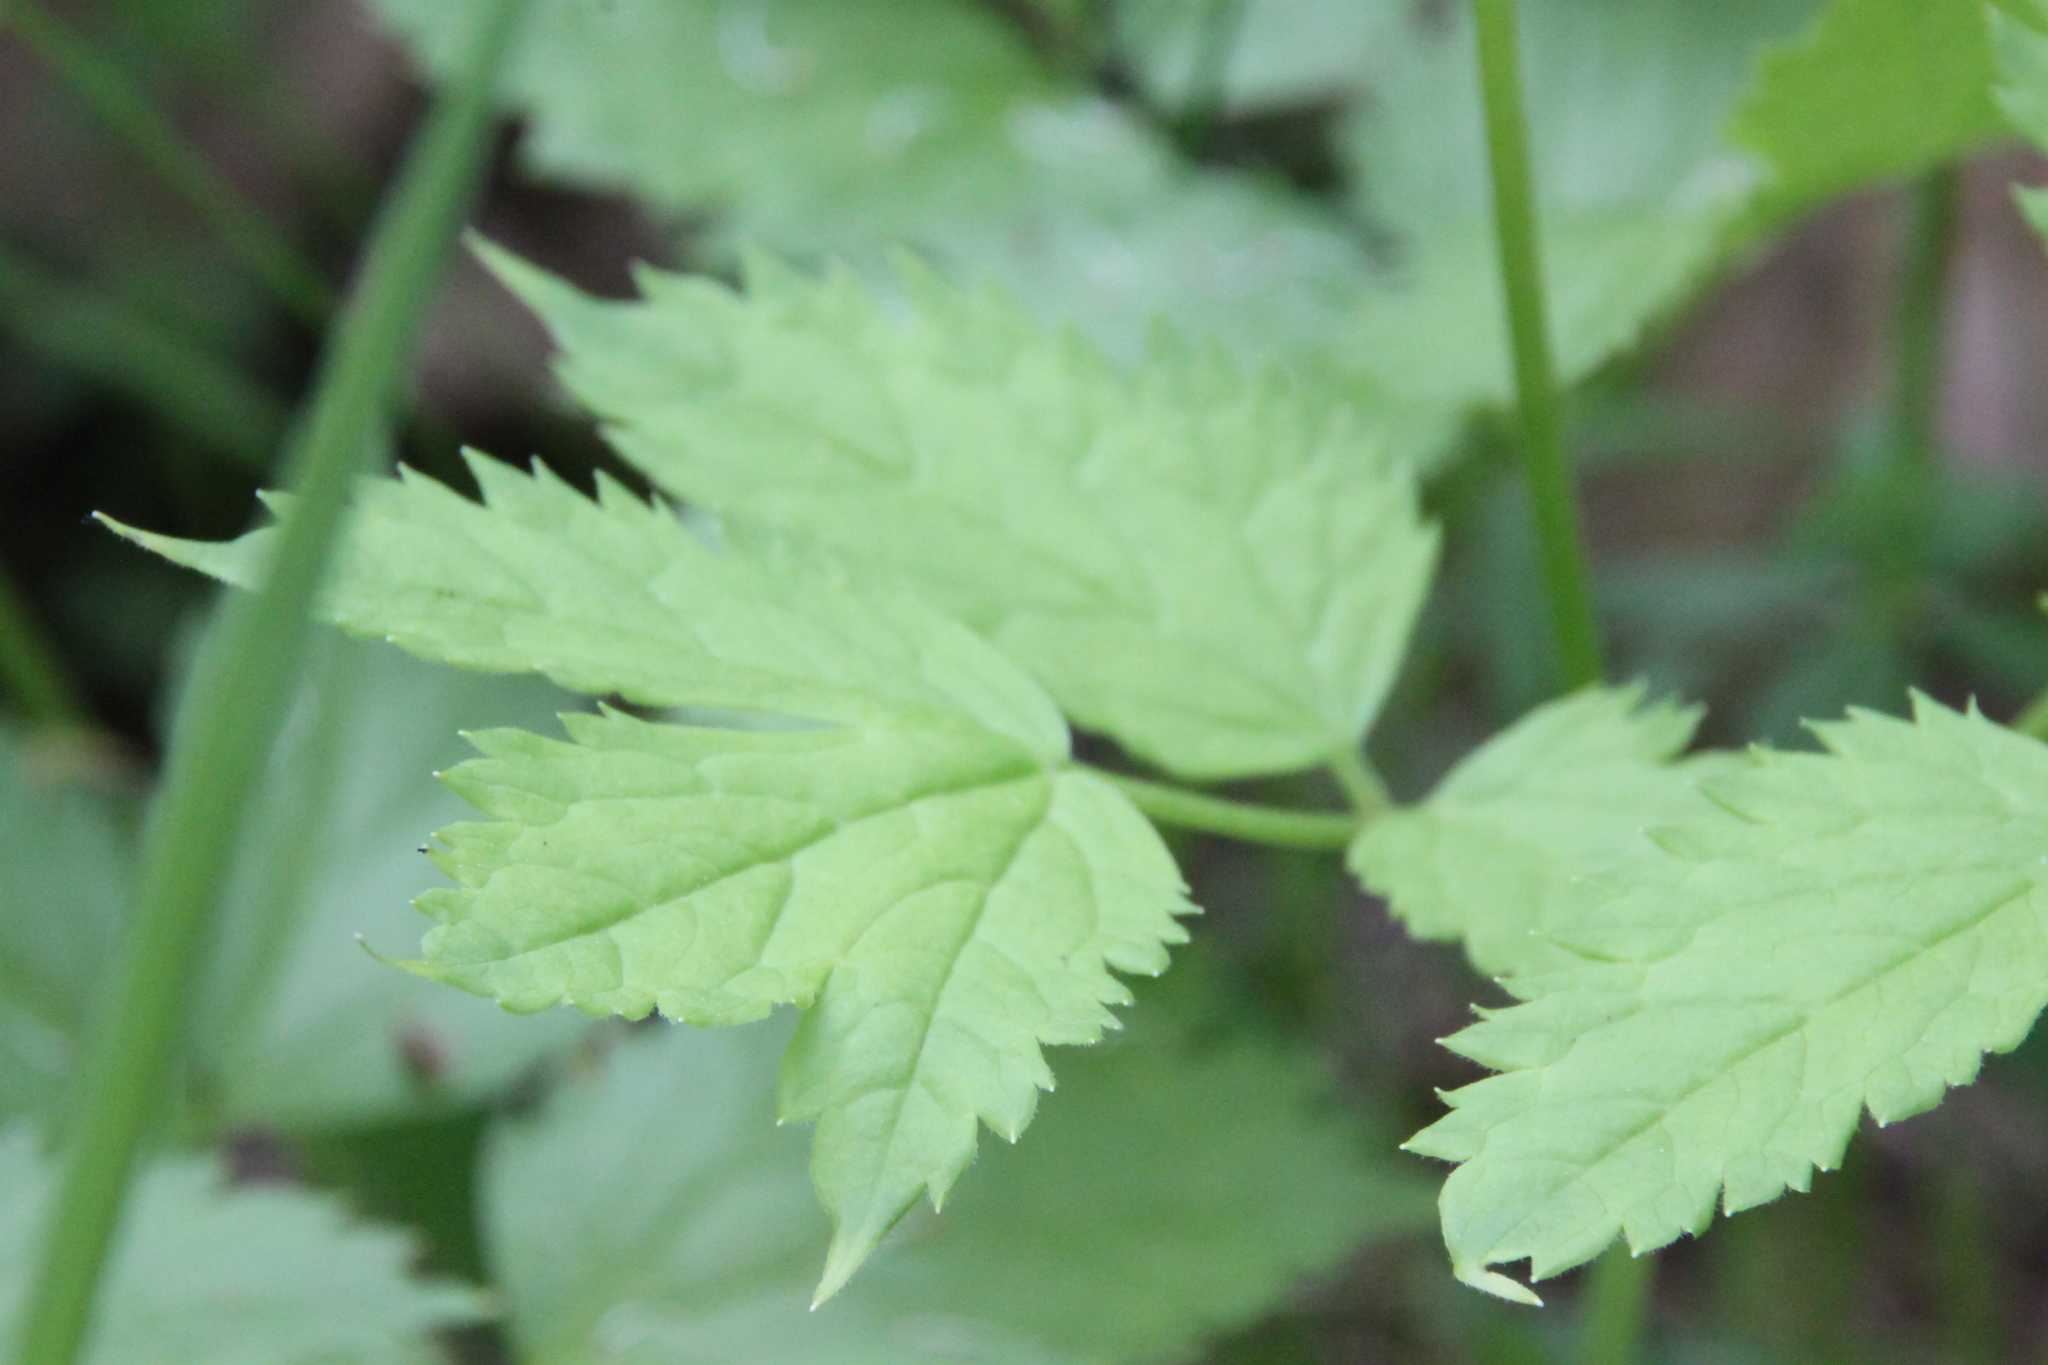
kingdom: Plantae
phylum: Tracheophyta
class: Magnoliopsida
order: Ranunculales
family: Ranunculaceae
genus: Actaea
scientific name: Actaea spicata
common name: Baneberry
